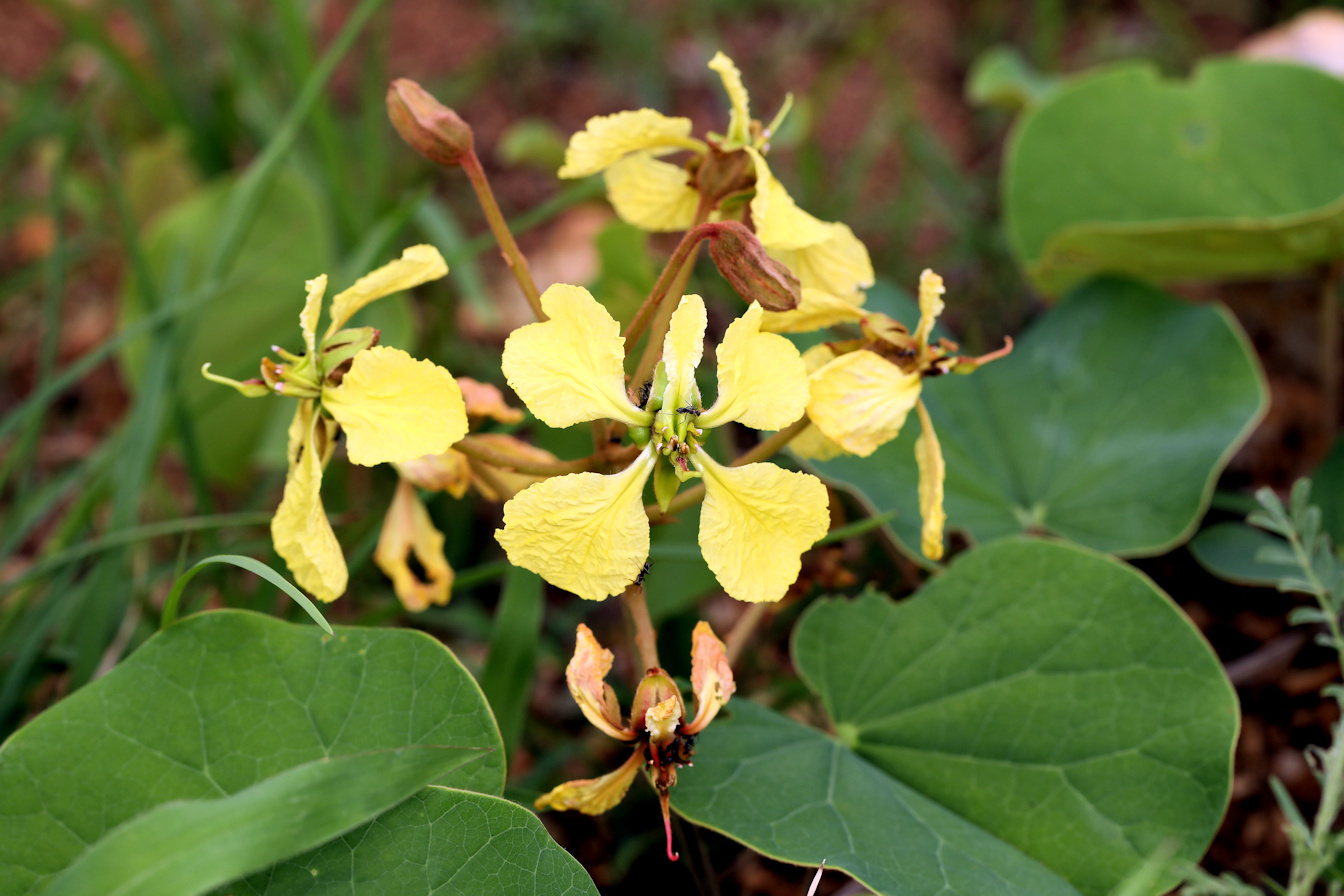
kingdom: Plantae
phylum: Tracheophyta
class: Magnoliopsida
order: Fabales
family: Fabaceae
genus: Tylosema
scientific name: Tylosema fassoglense
